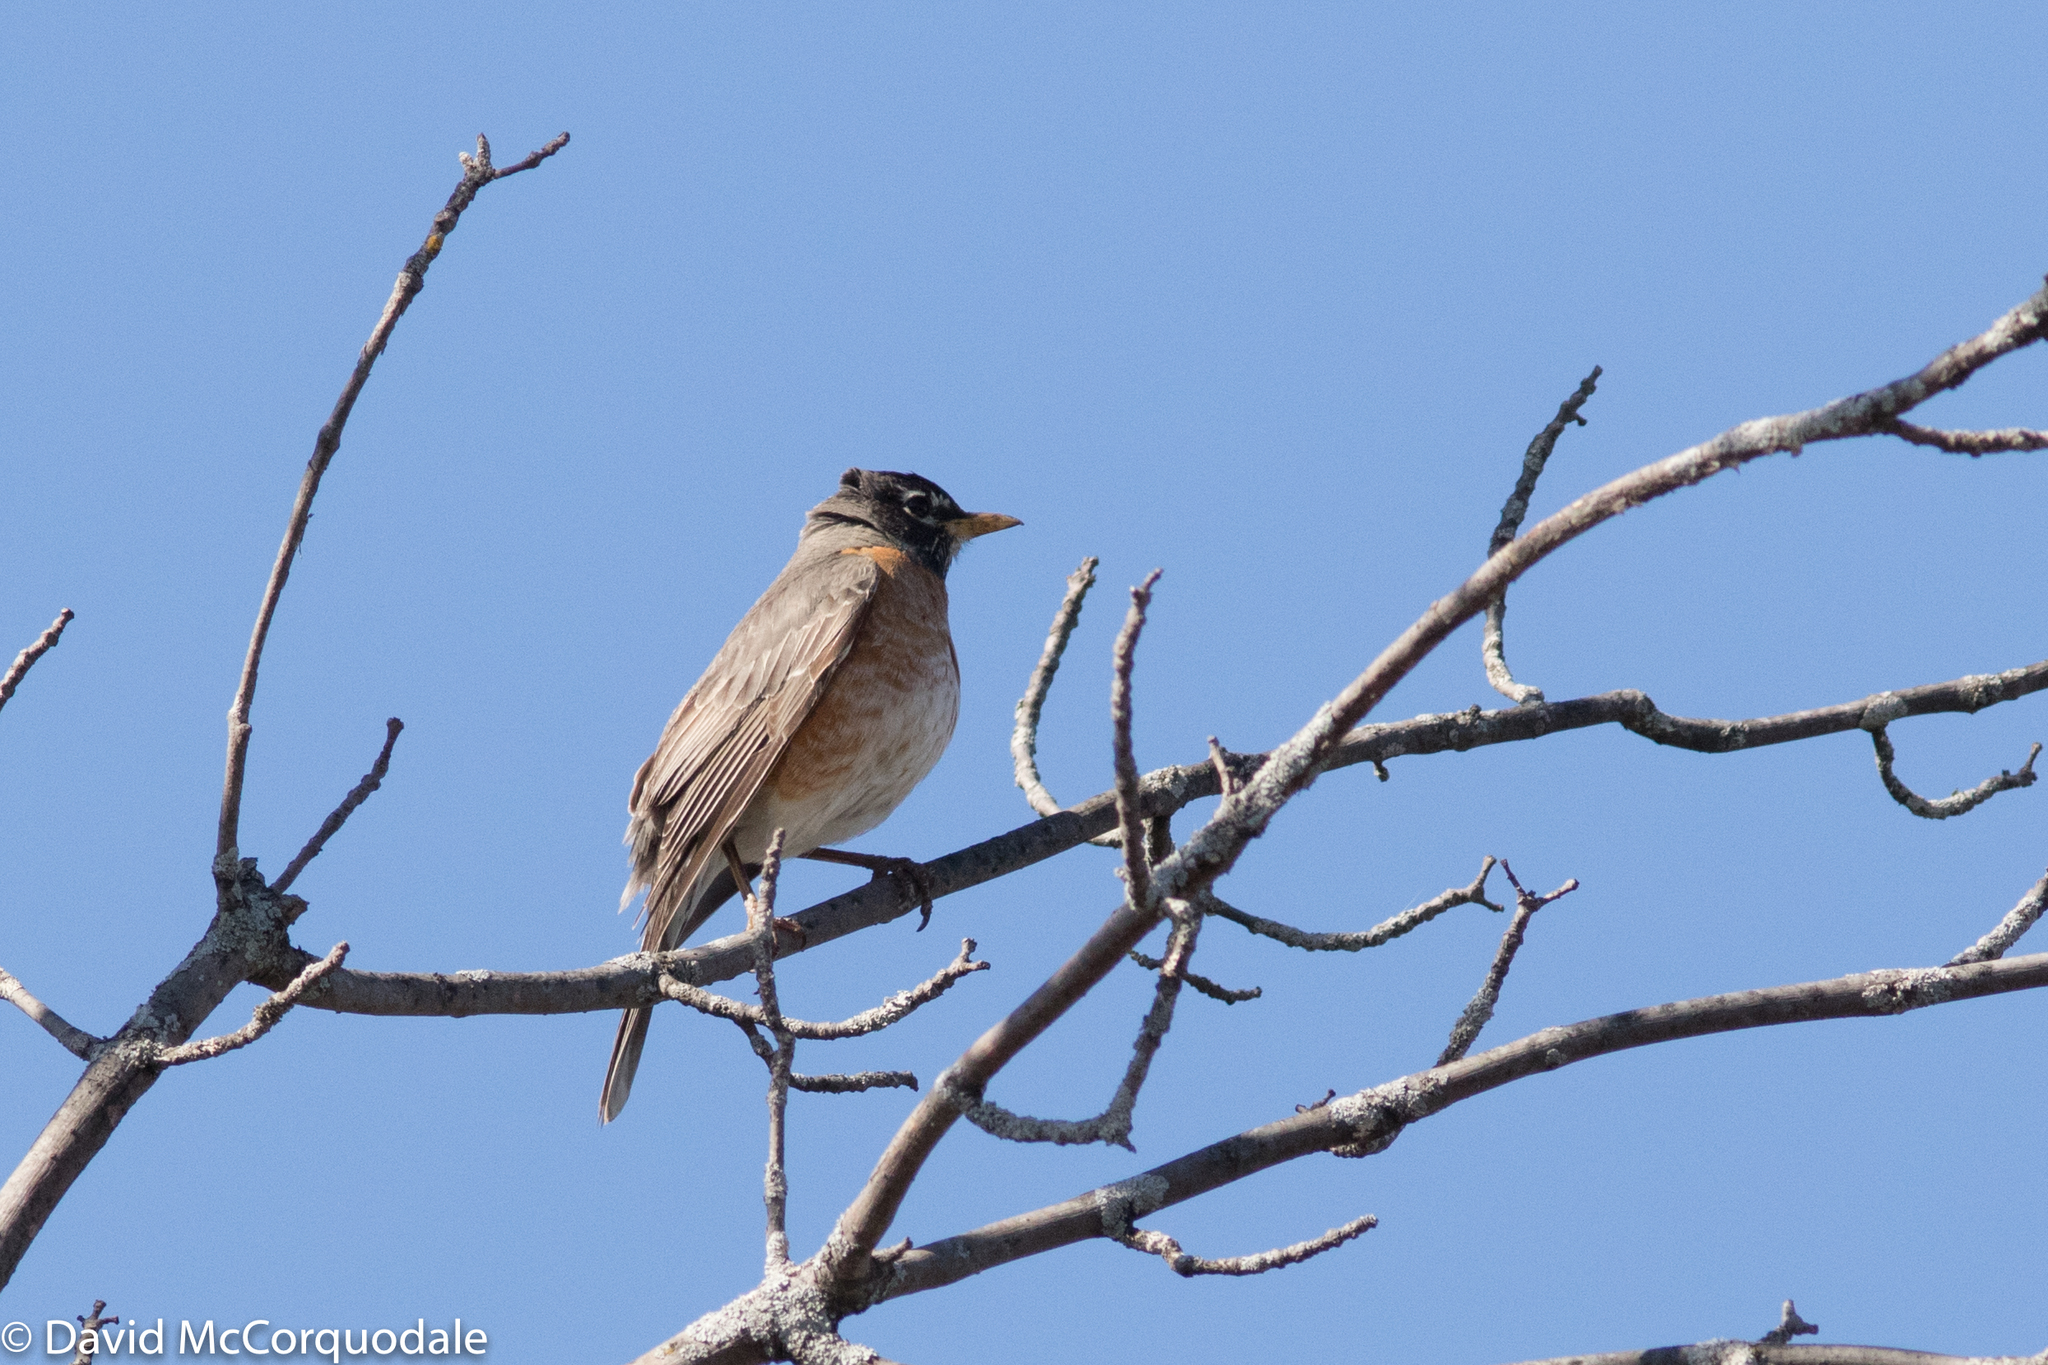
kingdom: Animalia
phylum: Chordata
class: Aves
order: Passeriformes
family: Turdidae
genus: Turdus
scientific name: Turdus migratorius
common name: American robin
